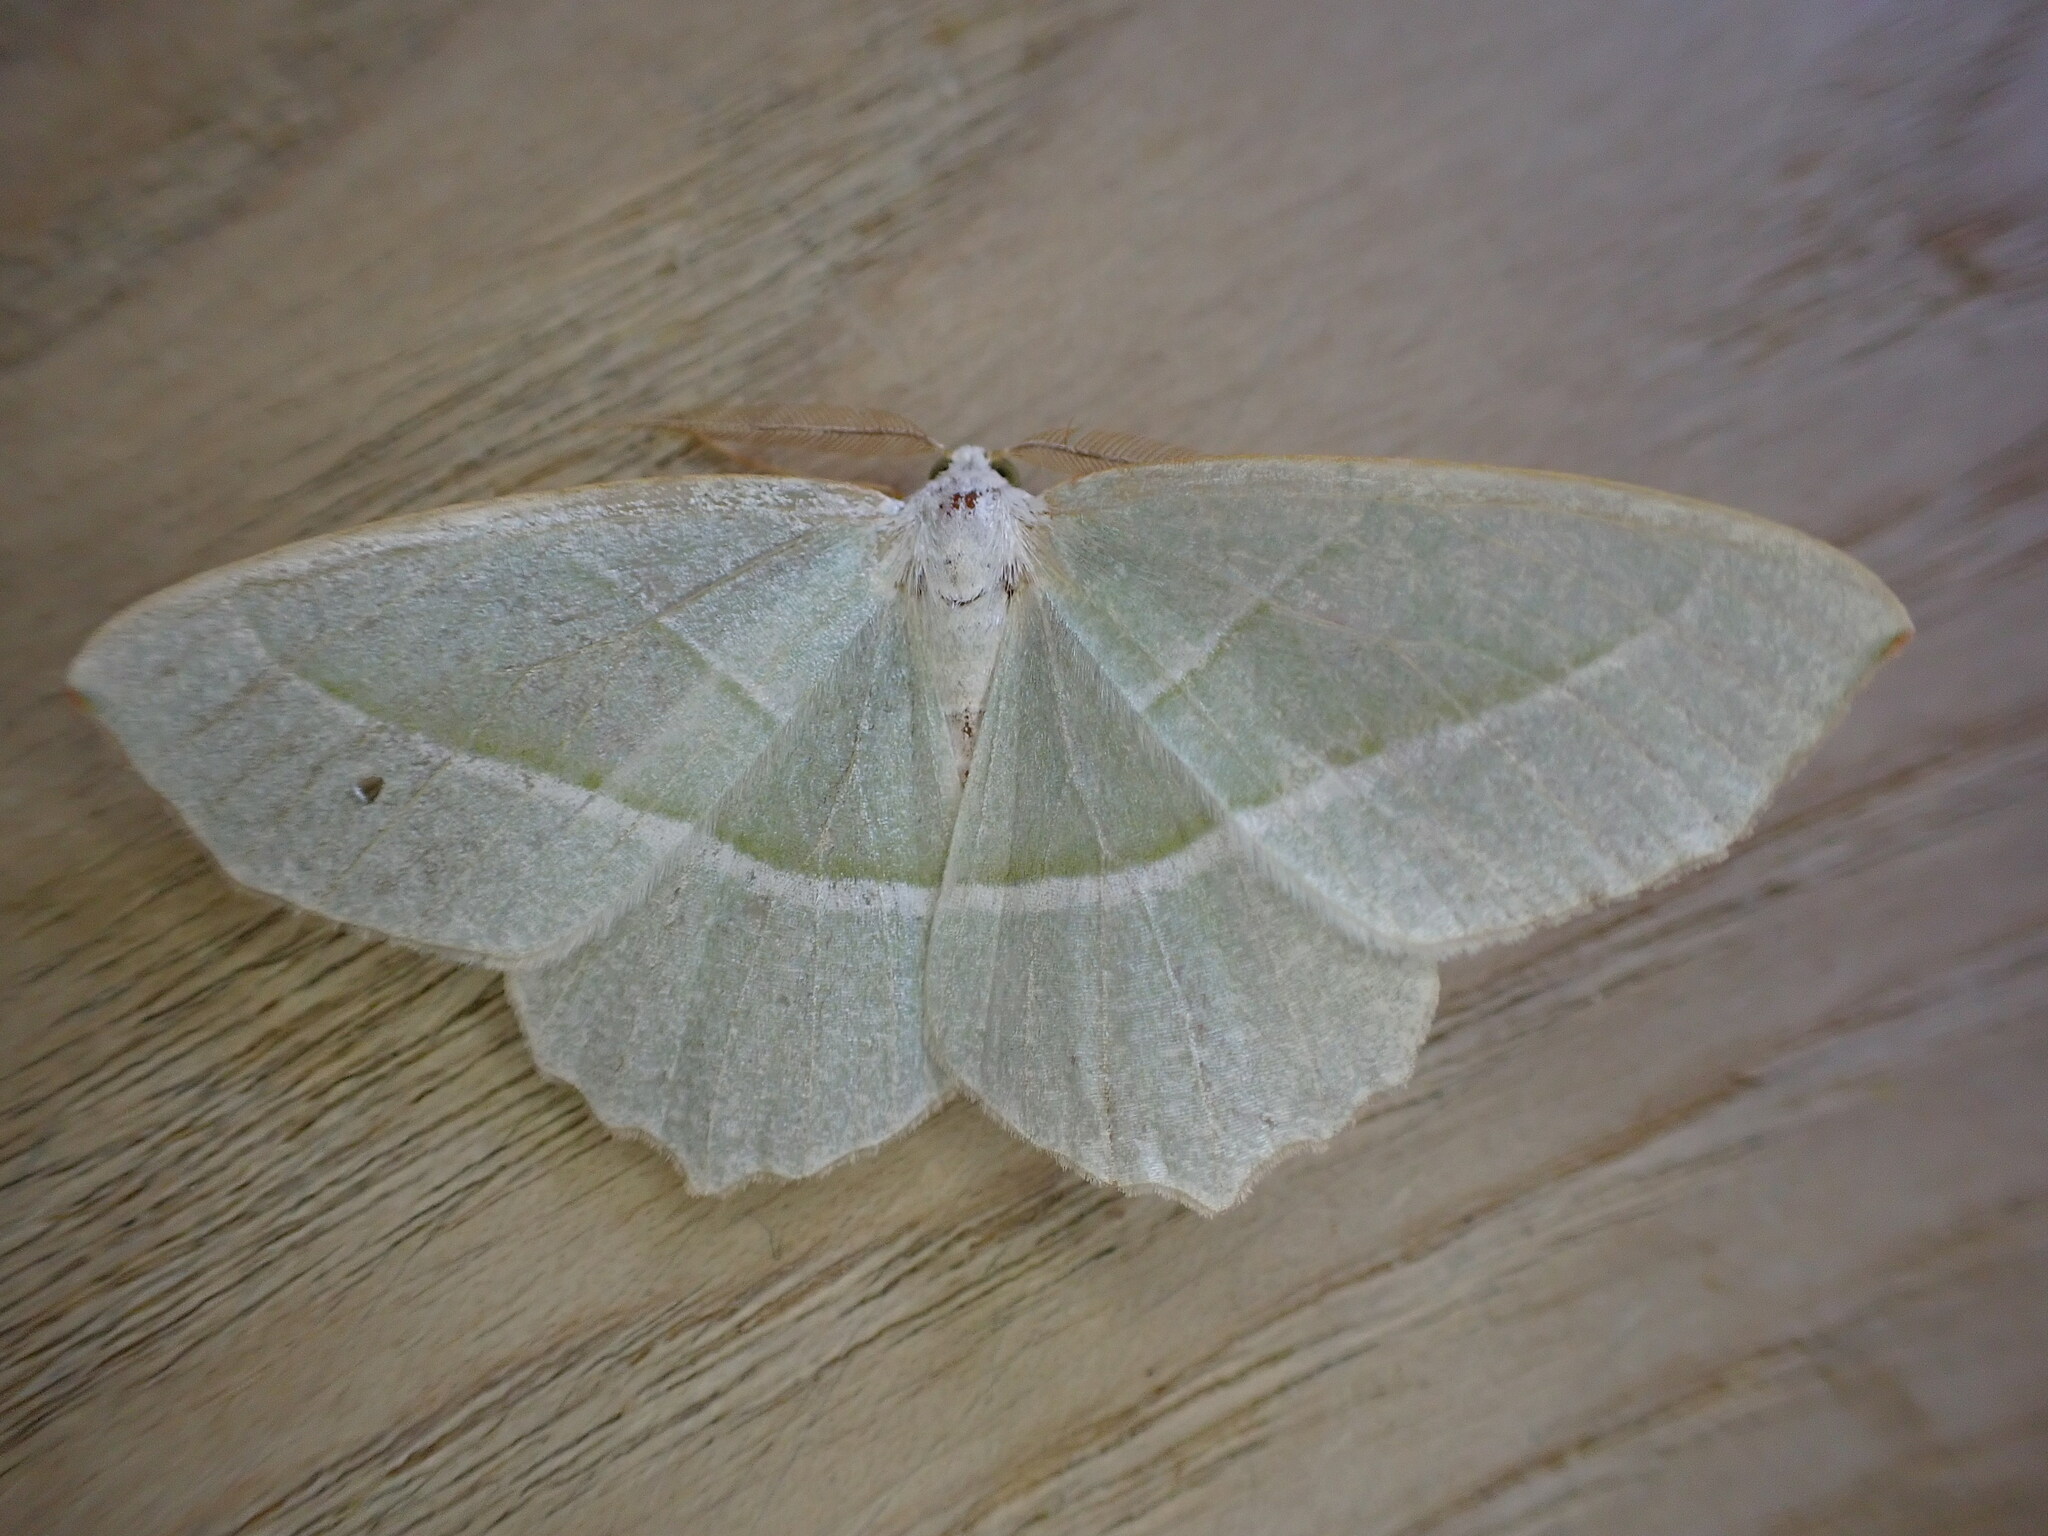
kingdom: Animalia
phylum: Arthropoda
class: Insecta
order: Lepidoptera
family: Geometridae
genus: Campaea
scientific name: Campaea margaritaria
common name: Light emerald
